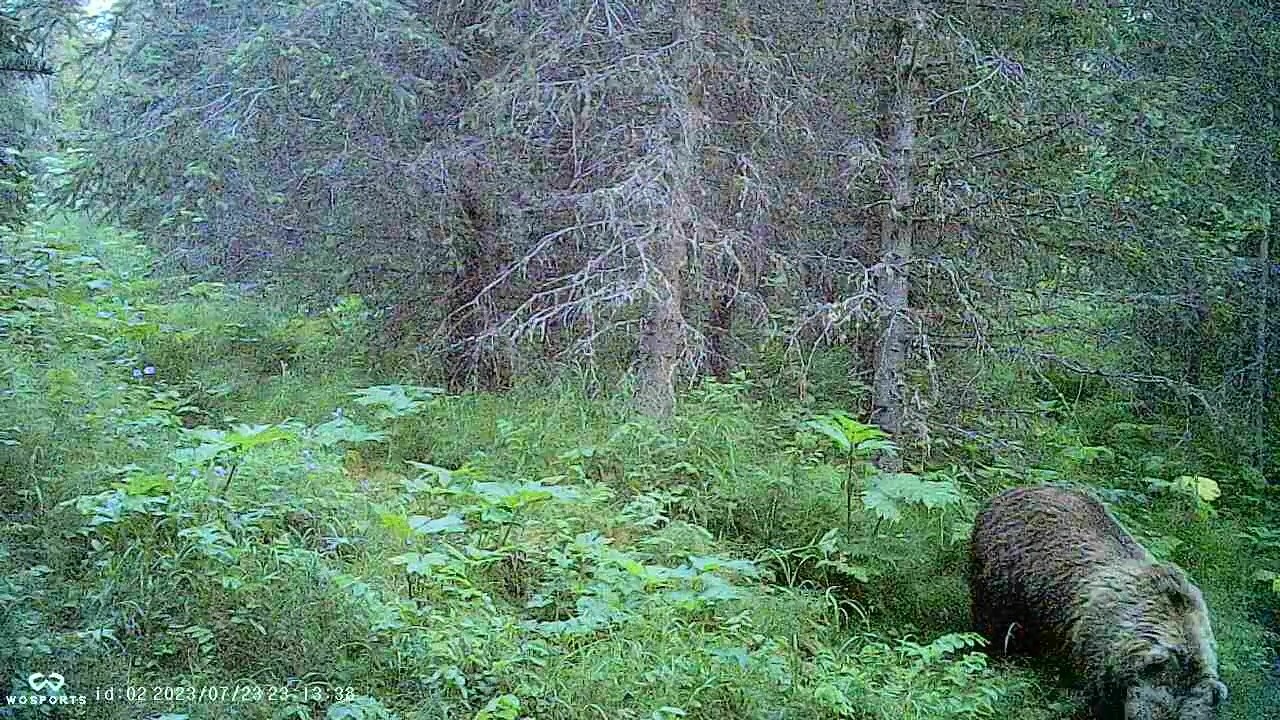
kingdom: Animalia
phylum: Chordata
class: Mammalia
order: Carnivora
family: Ursidae
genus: Ursus
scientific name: Ursus arctos
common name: Brown bear
